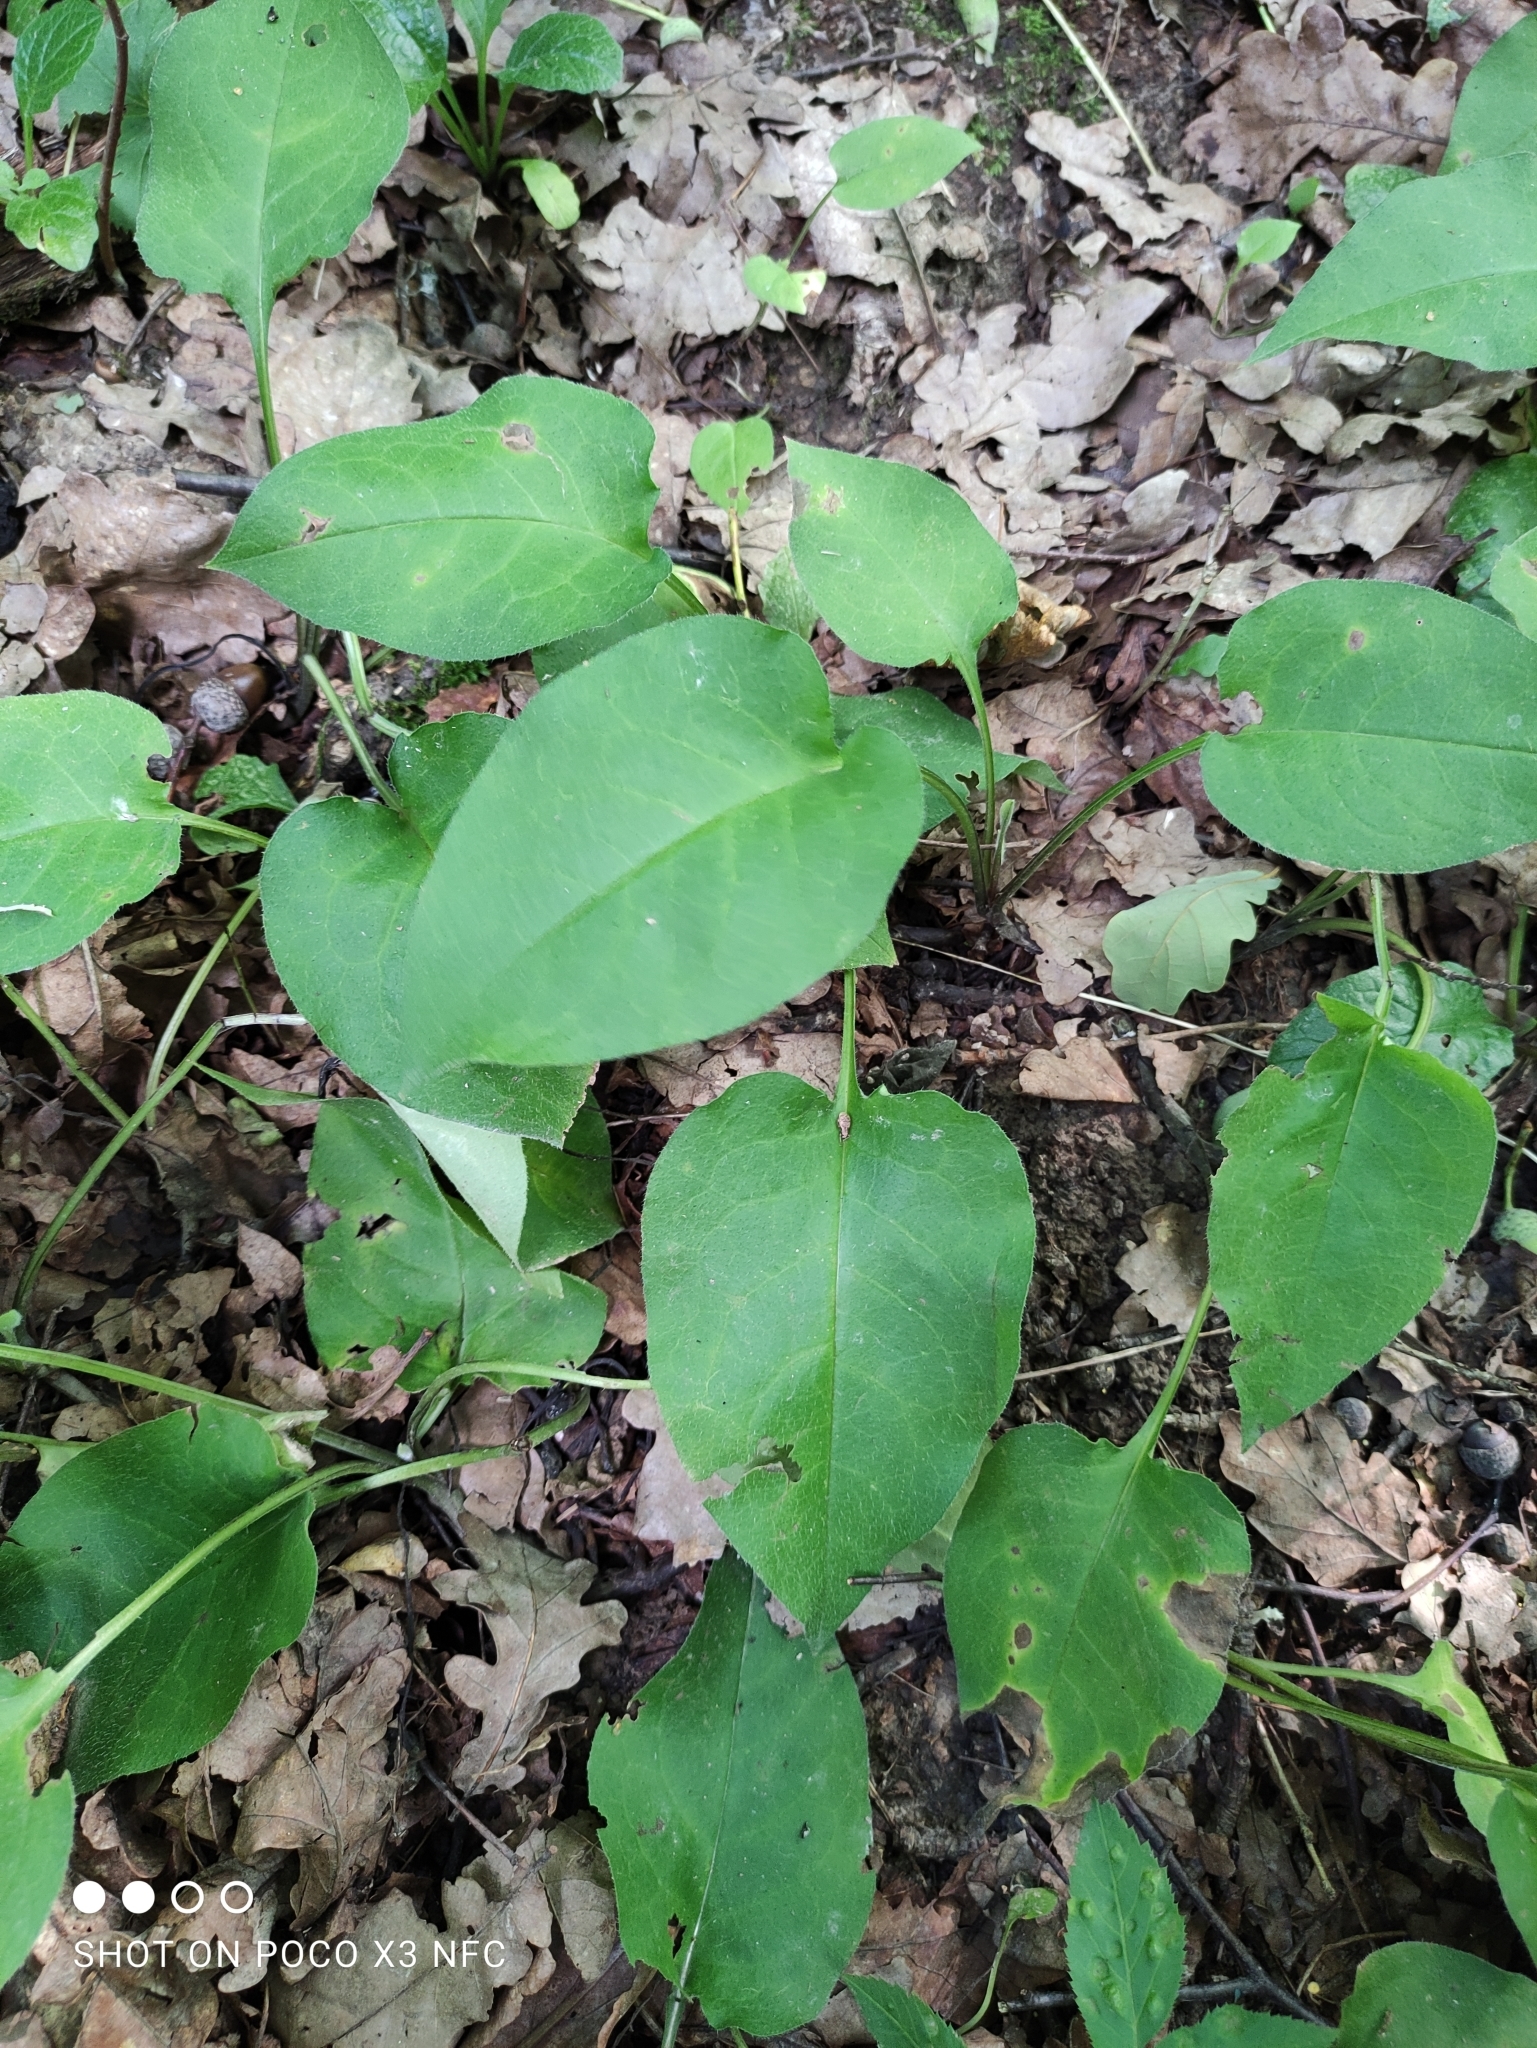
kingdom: Plantae
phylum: Tracheophyta
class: Magnoliopsida
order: Boraginales
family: Boraginaceae
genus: Pulmonaria
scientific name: Pulmonaria obscura
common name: Suffolk lungwort
